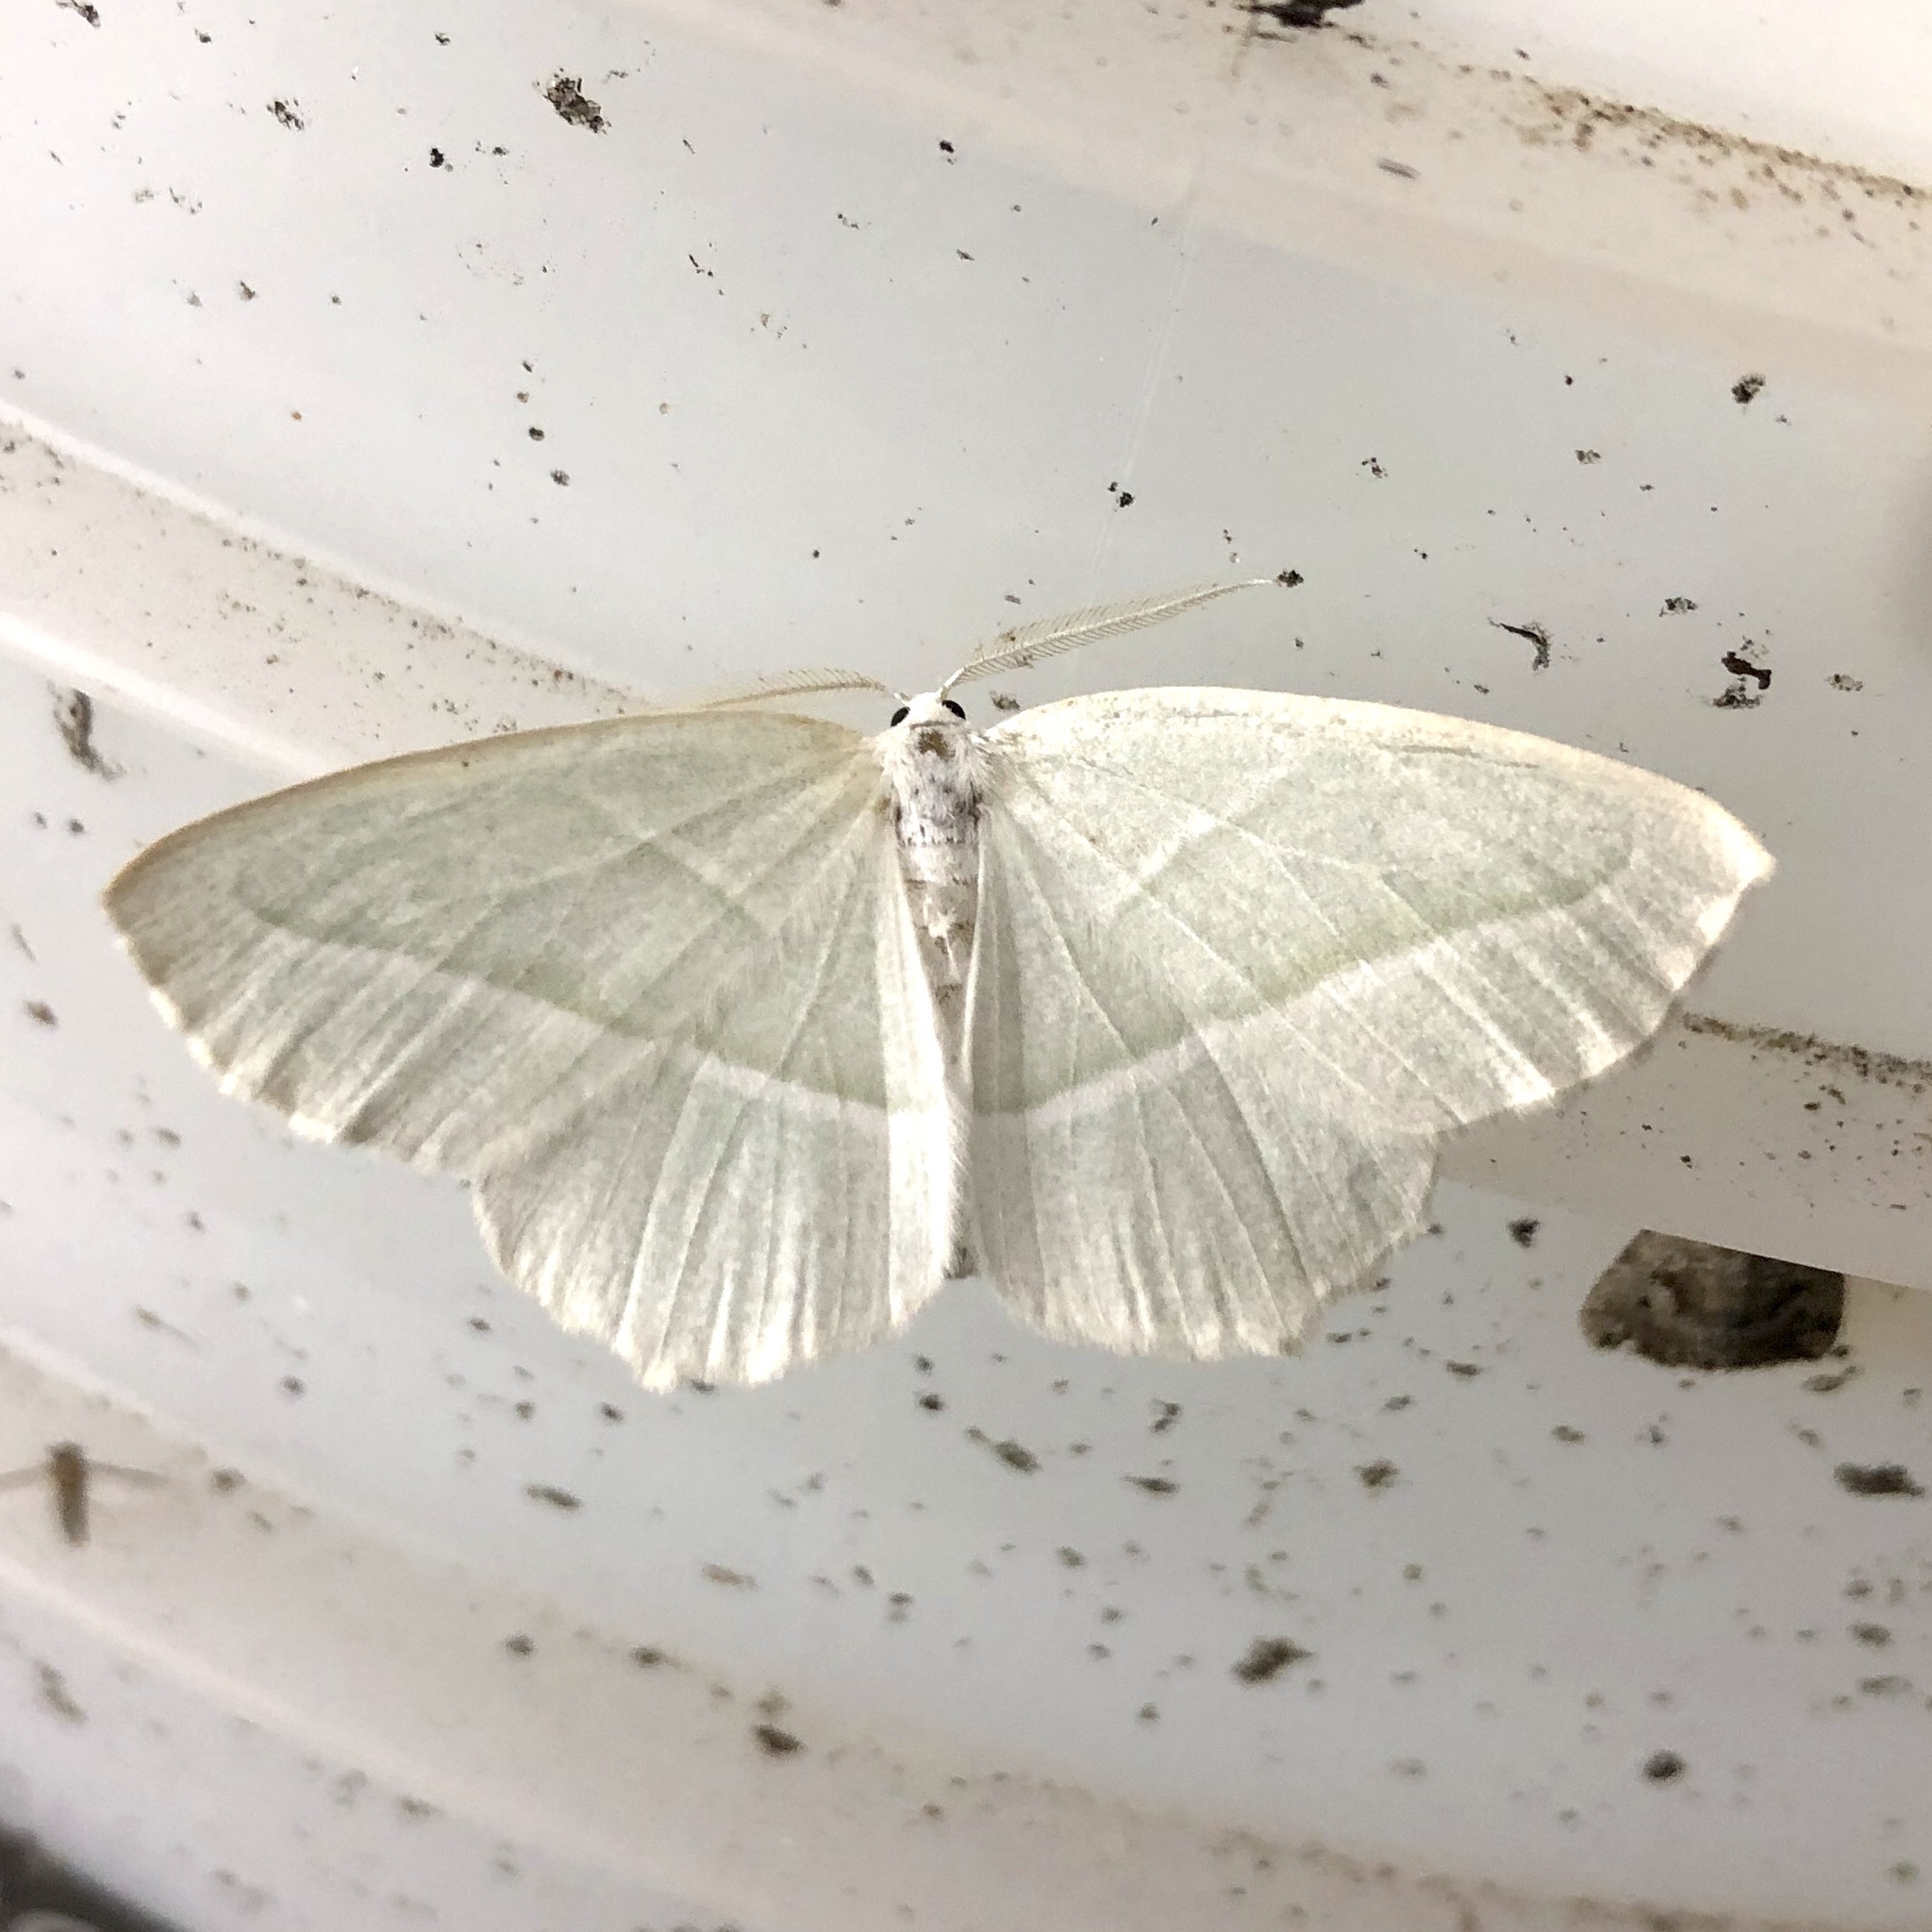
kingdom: Animalia
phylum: Arthropoda
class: Insecta
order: Lepidoptera
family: Geometridae
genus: Campaea
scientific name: Campaea perlata
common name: Fringed looper
